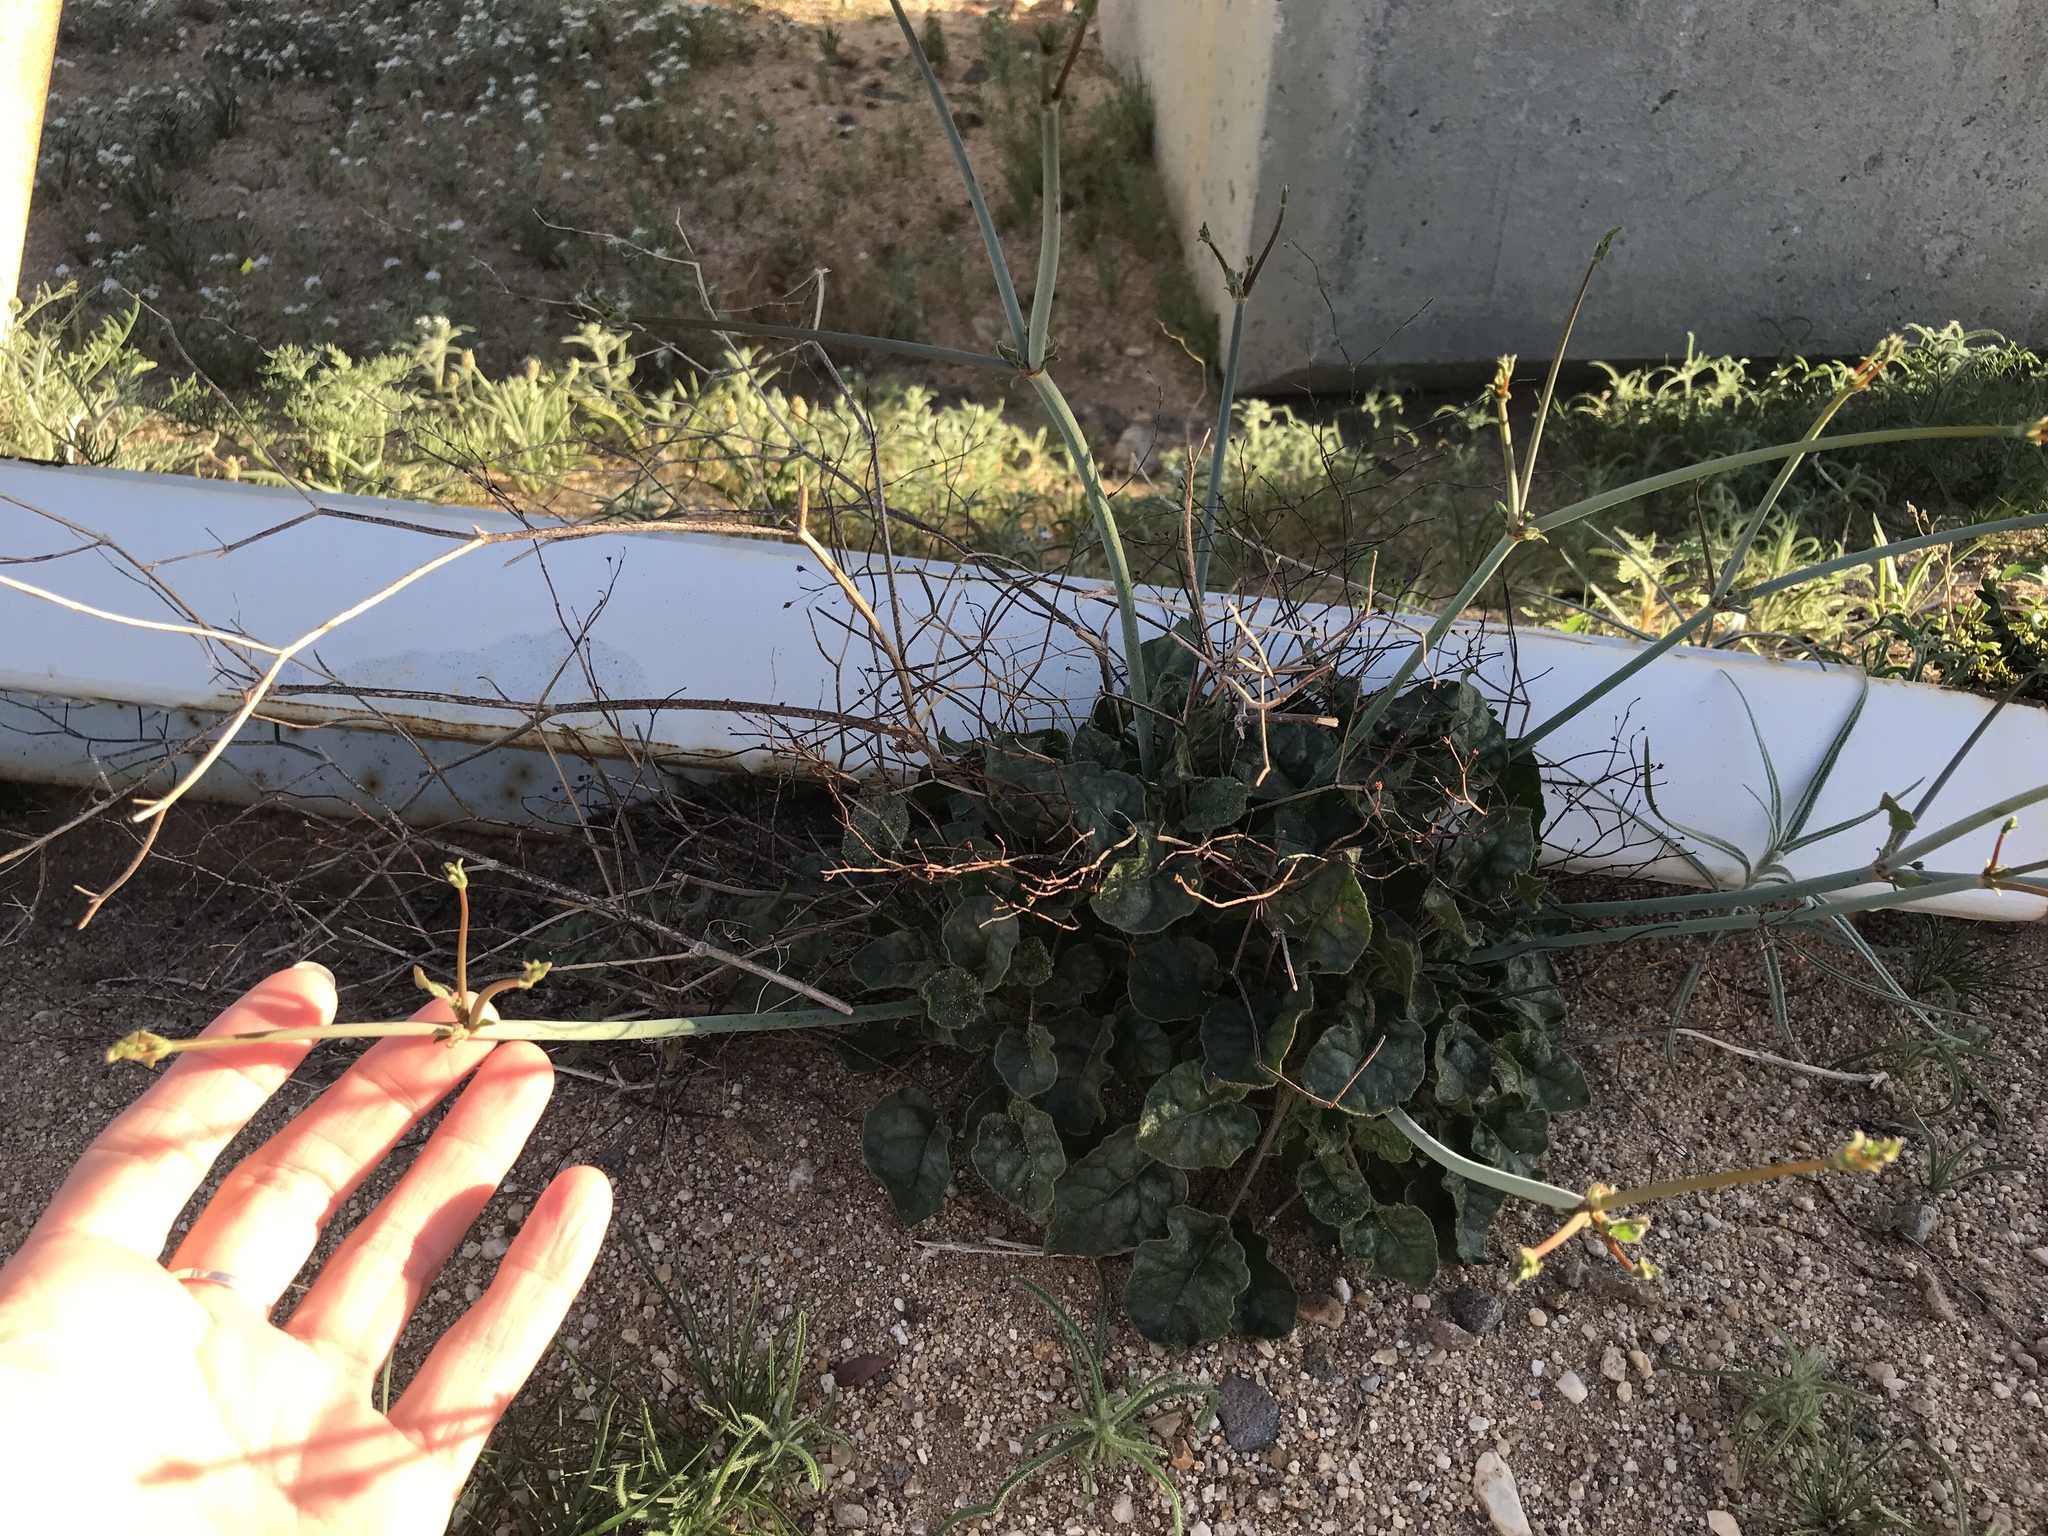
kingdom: Plantae
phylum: Tracheophyta
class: Magnoliopsida
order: Caryophyllales
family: Polygonaceae
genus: Eriogonum
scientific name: Eriogonum inflatum
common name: Desert trumpet
